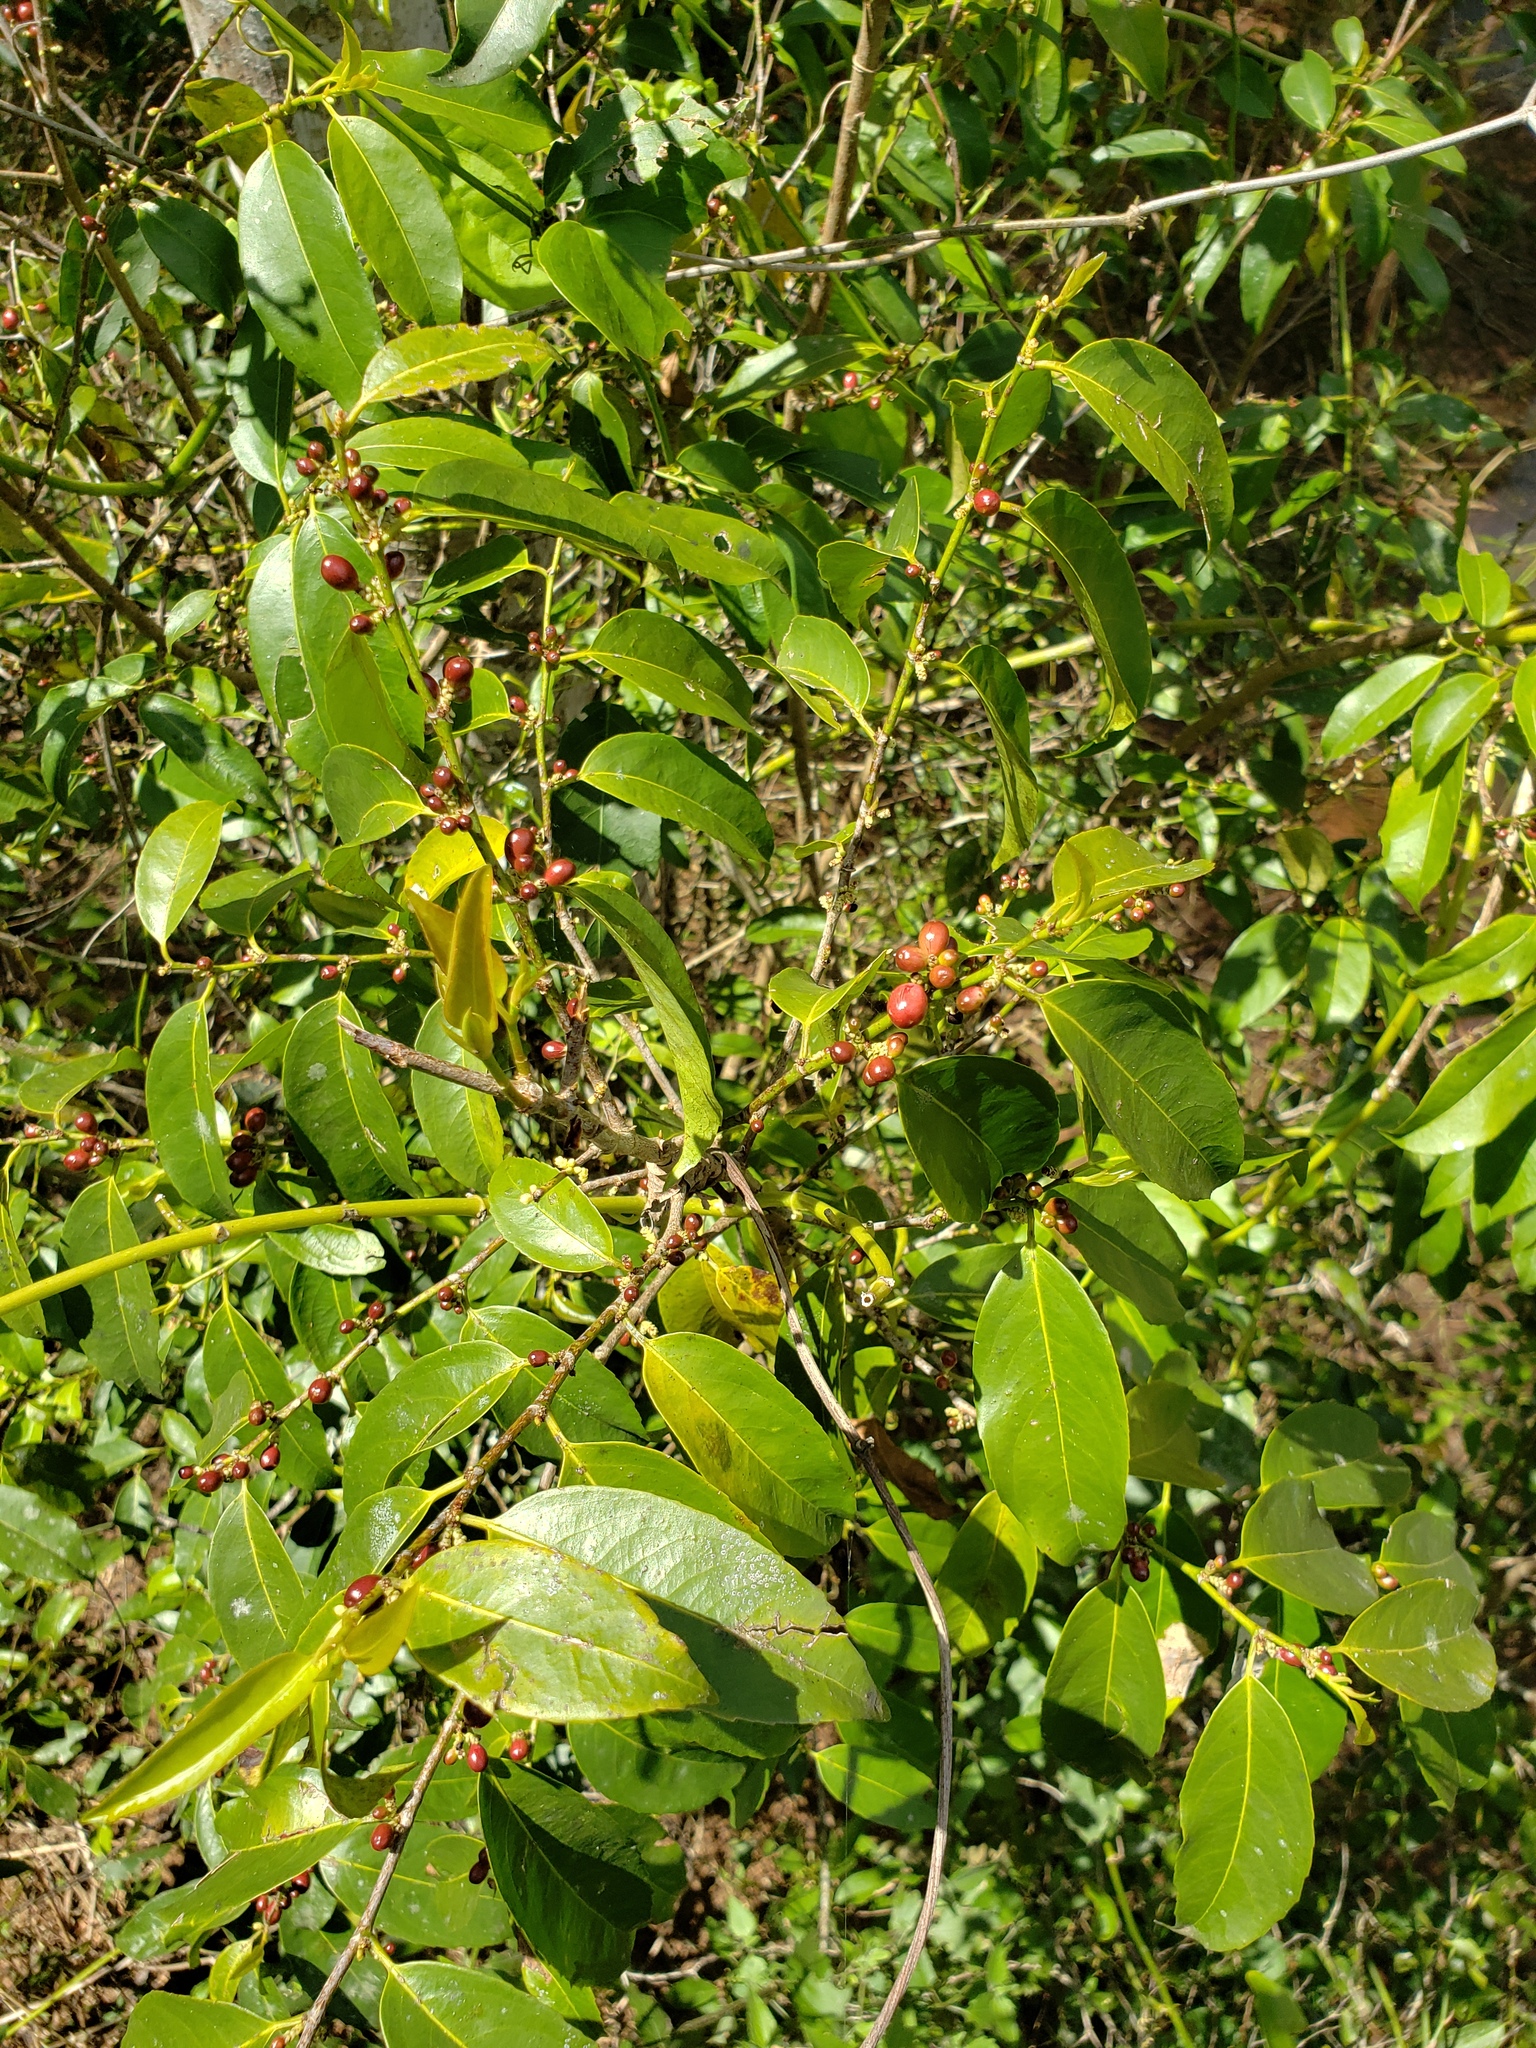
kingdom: Plantae
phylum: Tracheophyta
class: Magnoliopsida
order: Malpighiales
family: Lacistemataceae
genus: Lacistema
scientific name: Lacistema hasslerianum
